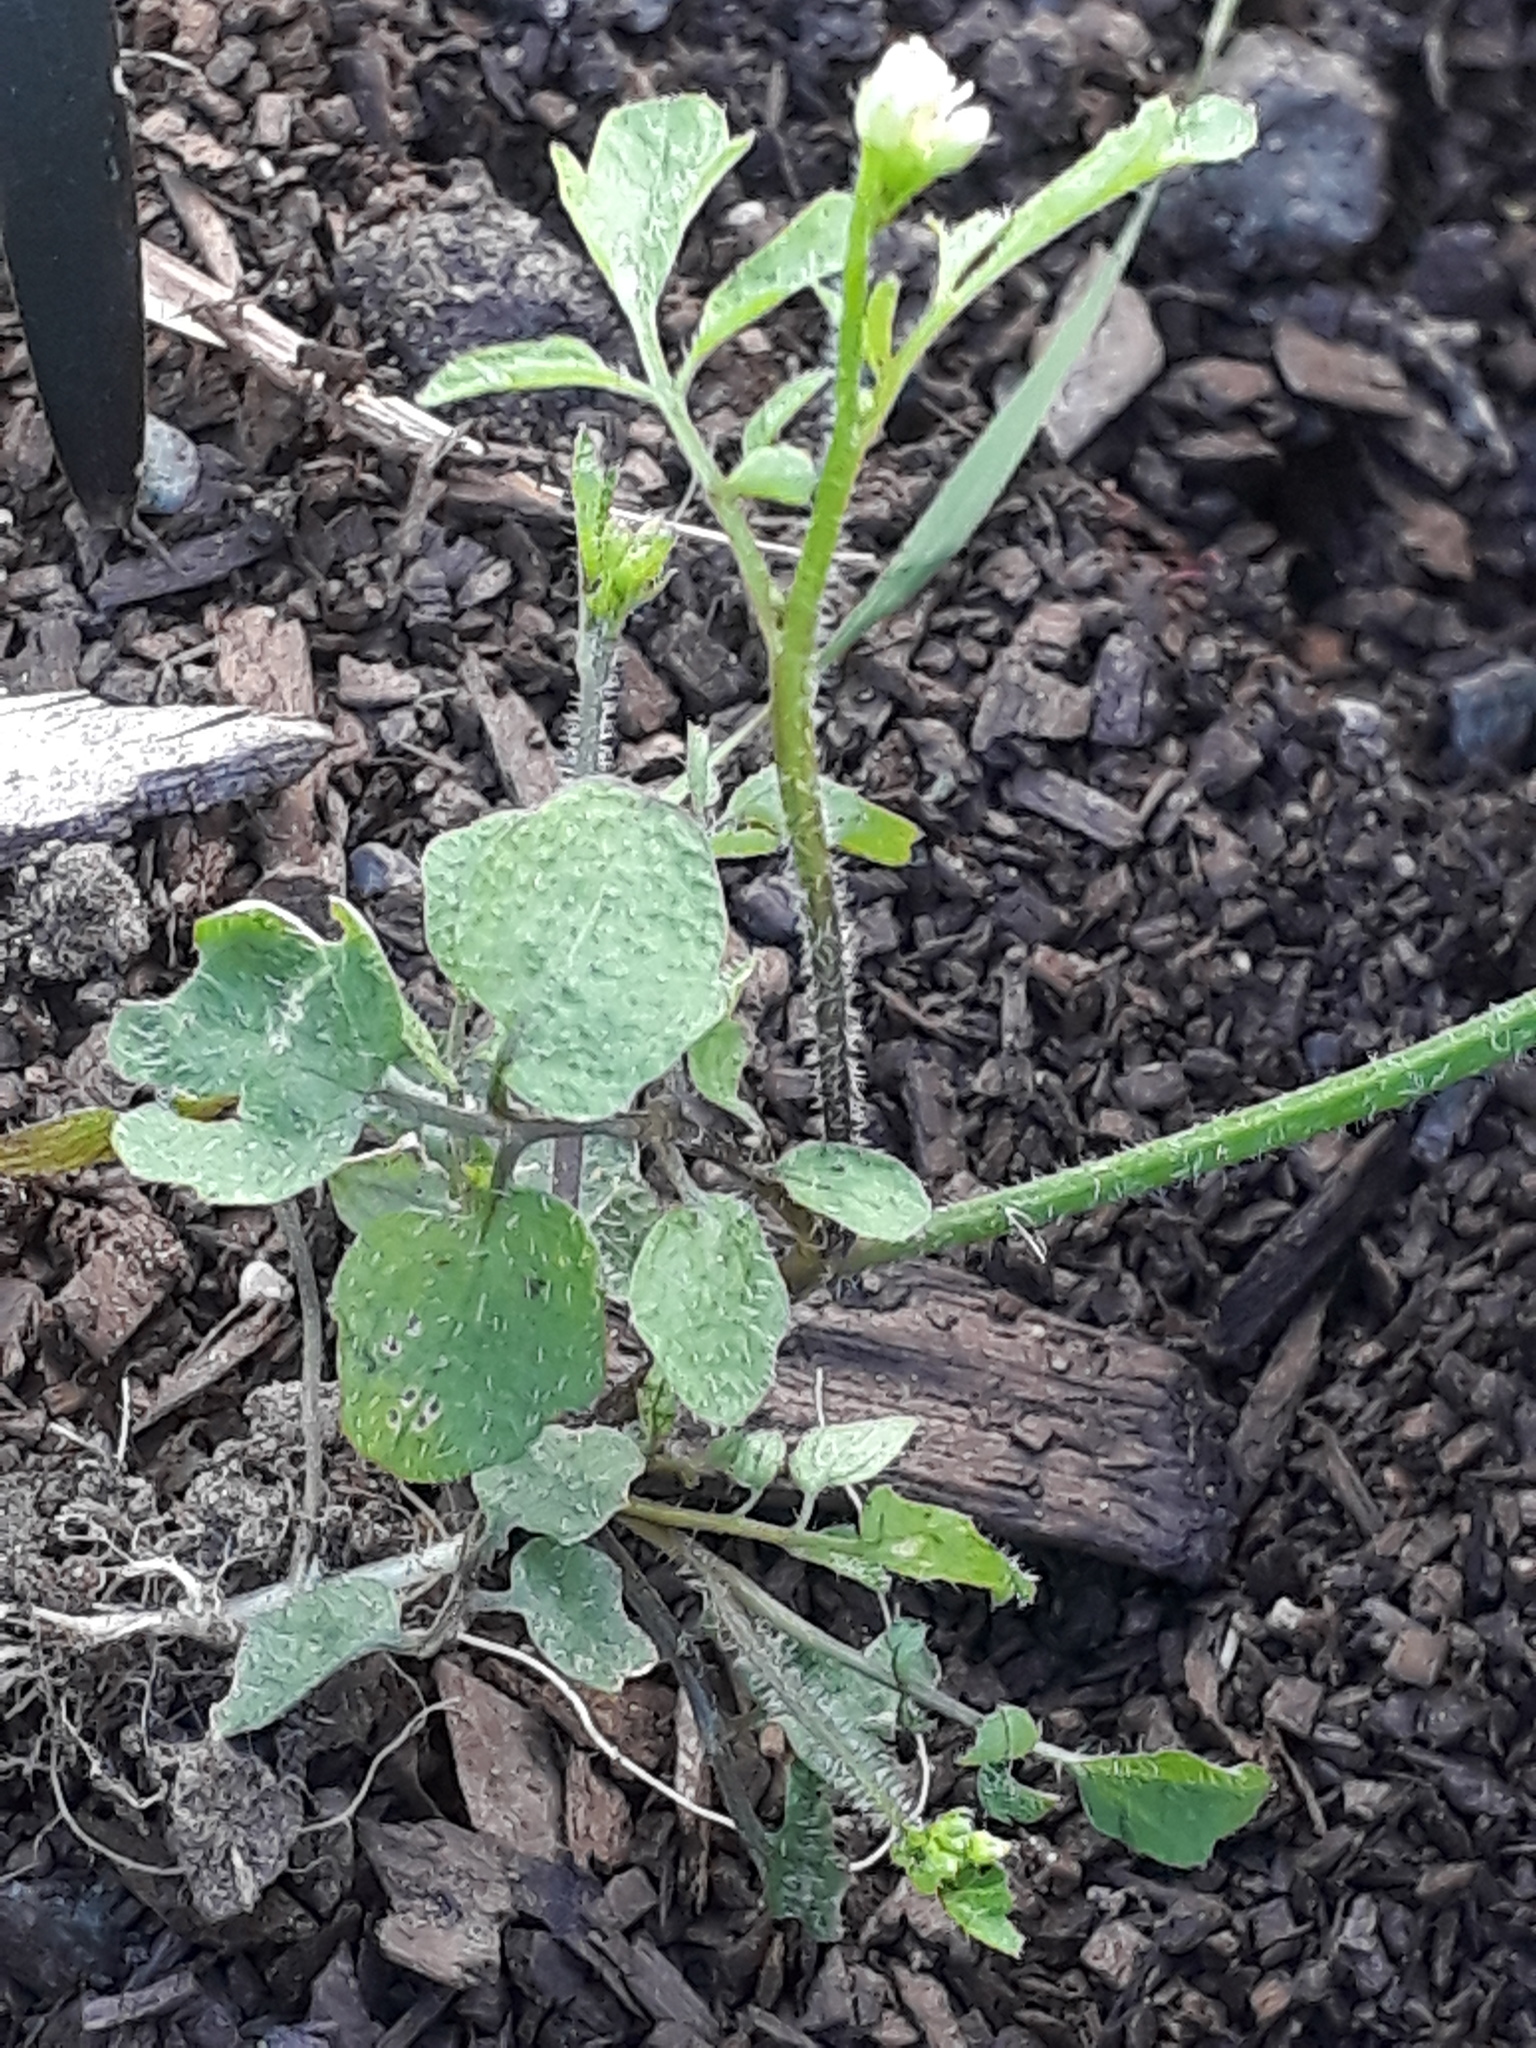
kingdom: Plantae
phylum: Tracheophyta
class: Magnoliopsida
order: Brassicales
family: Brassicaceae
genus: Cardamine
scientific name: Cardamine flexuosa
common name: Woodland bittercress
